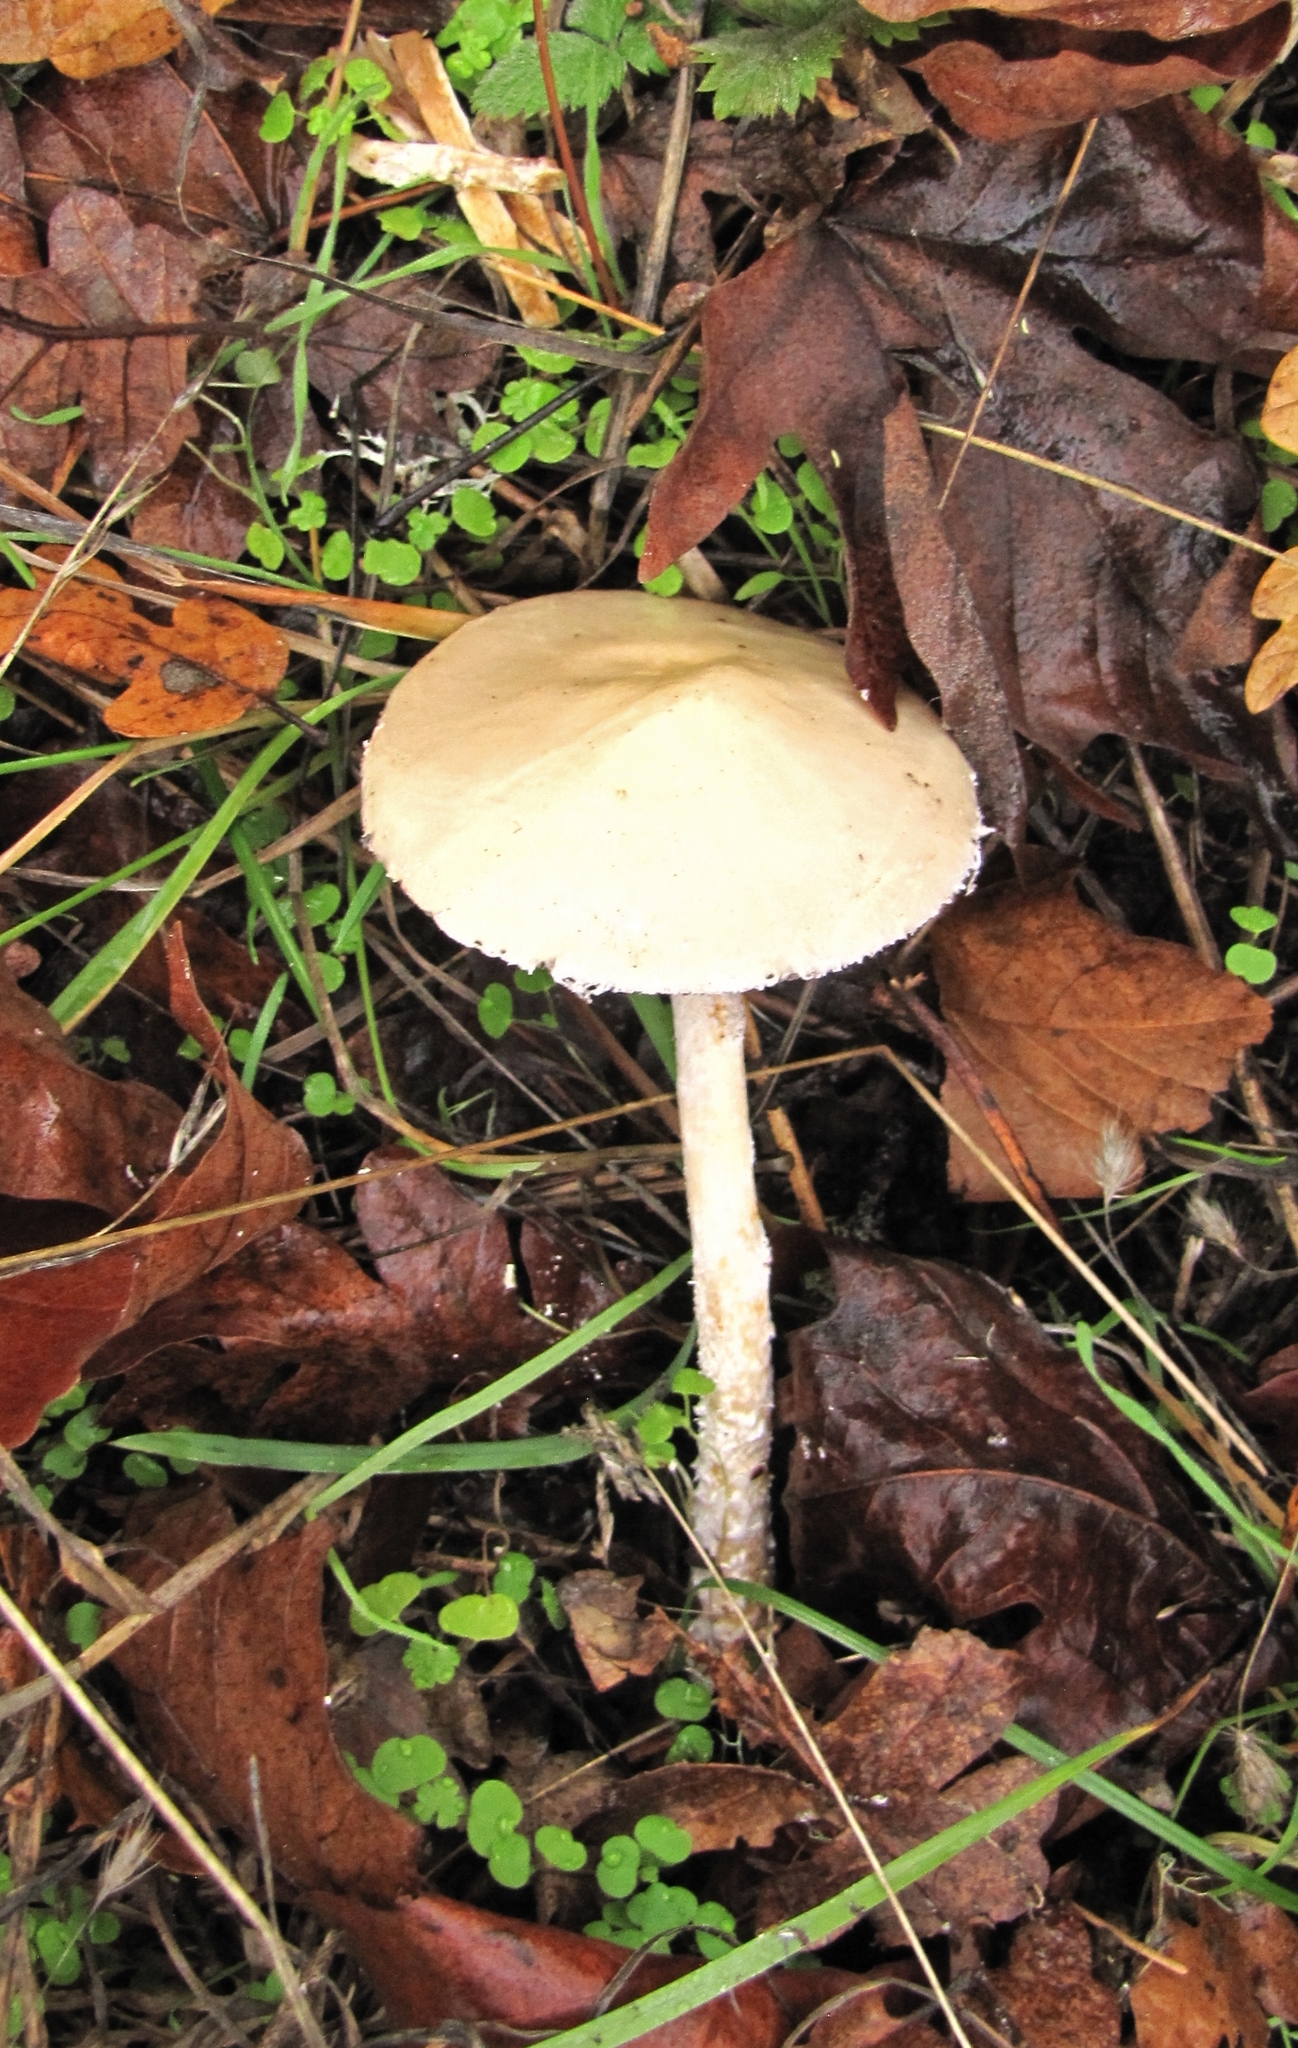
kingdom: Fungi
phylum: Basidiomycota
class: Agaricomycetes
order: Agaricales
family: Strophariaceae
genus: Stropharia
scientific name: Stropharia ambigua
